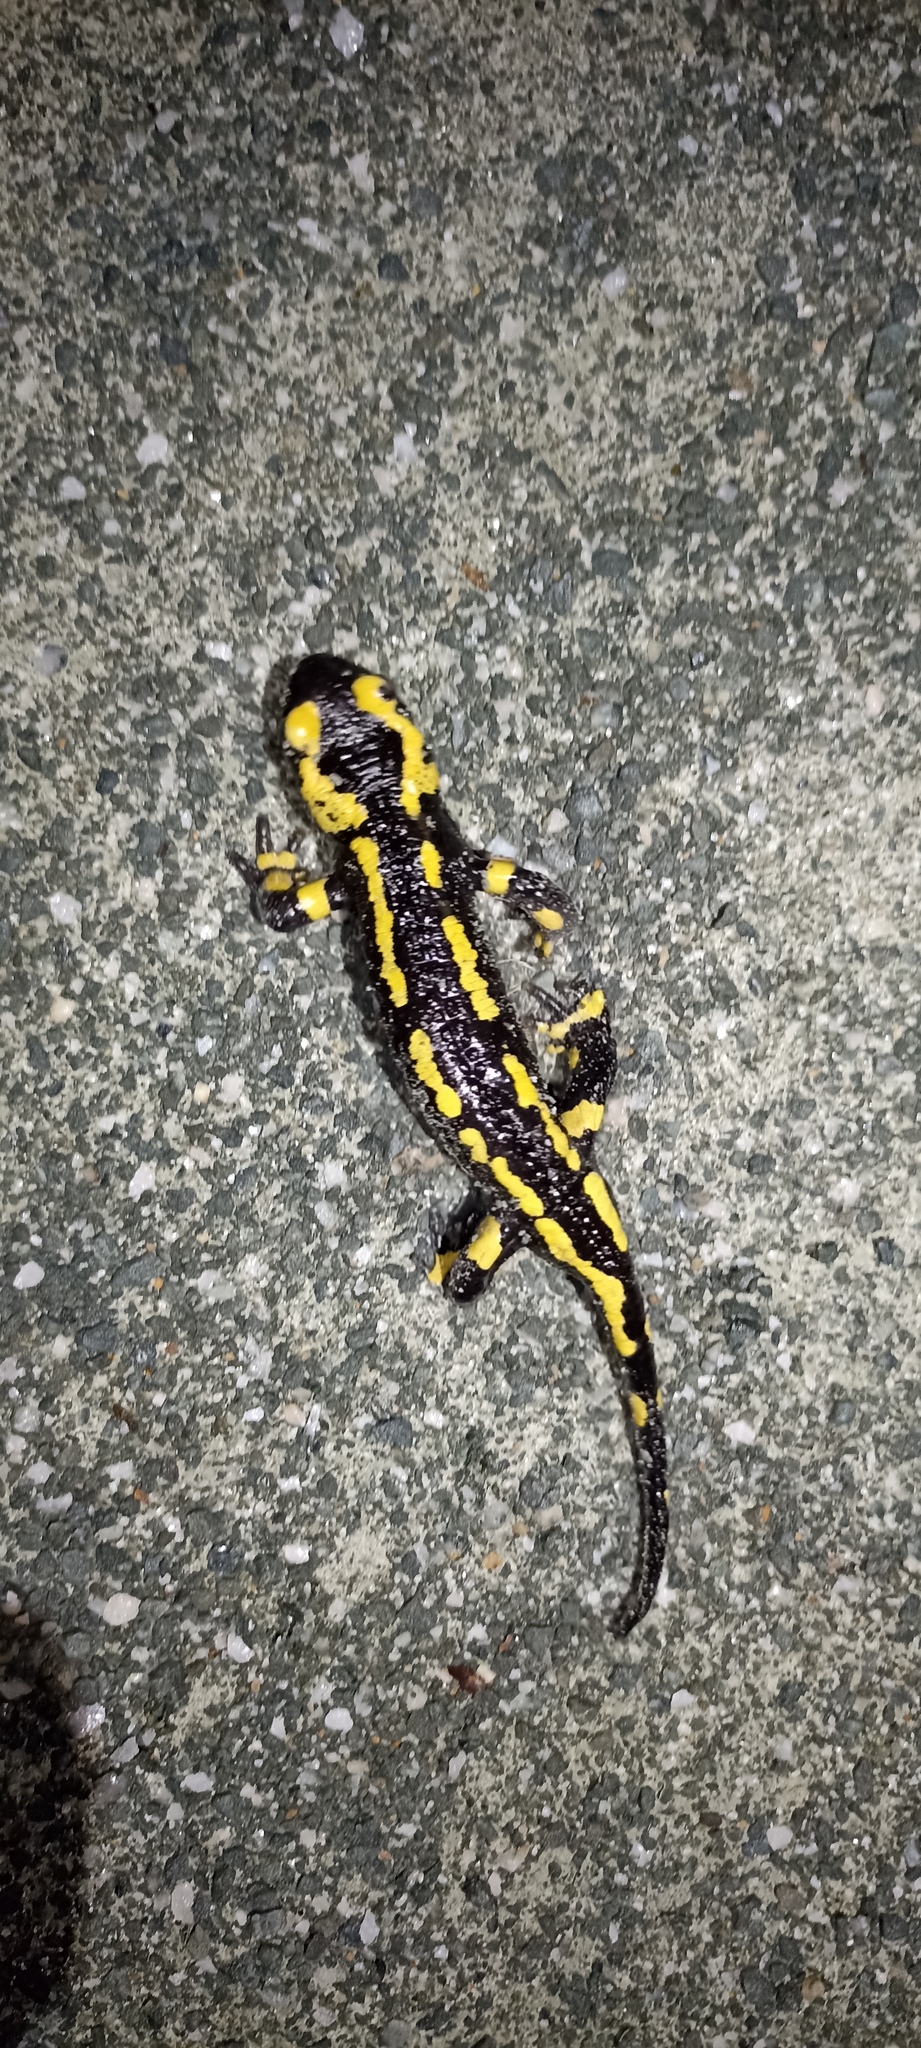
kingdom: Animalia
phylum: Chordata
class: Amphibia
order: Caudata
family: Salamandridae
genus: Salamandra
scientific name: Salamandra salamandra
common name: Fire salamander
